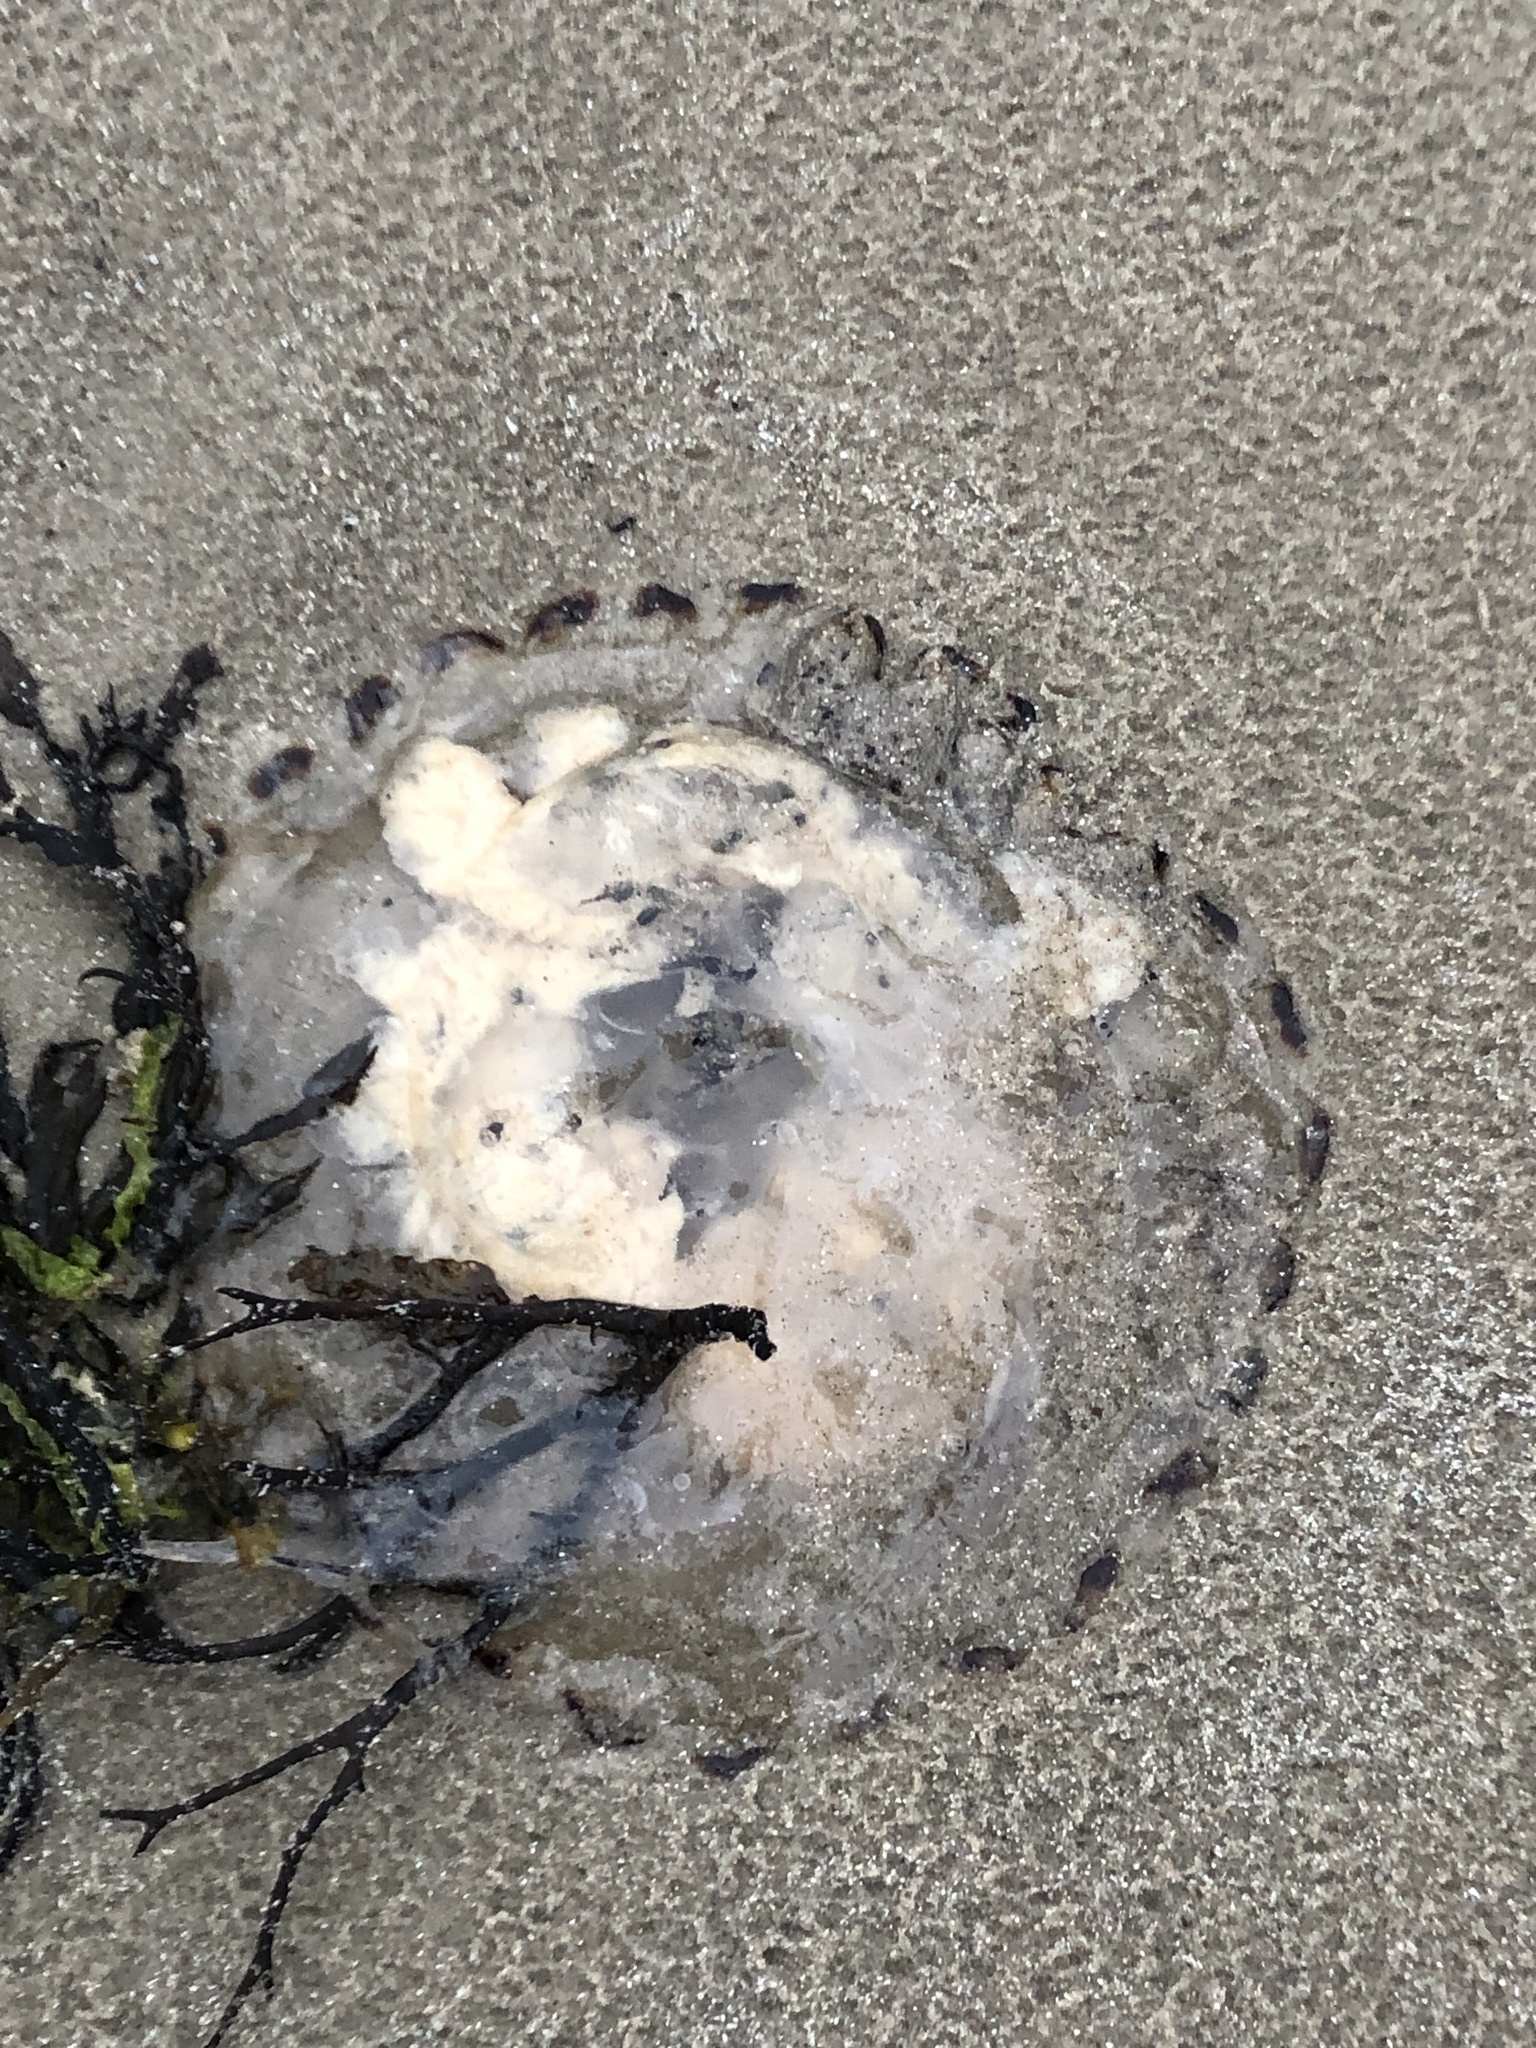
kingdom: Animalia
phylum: Cnidaria
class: Scyphozoa
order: Semaeostomeae
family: Pelagiidae
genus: Chrysaora
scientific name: Chrysaora hysoscella
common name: Compass jellyfish
